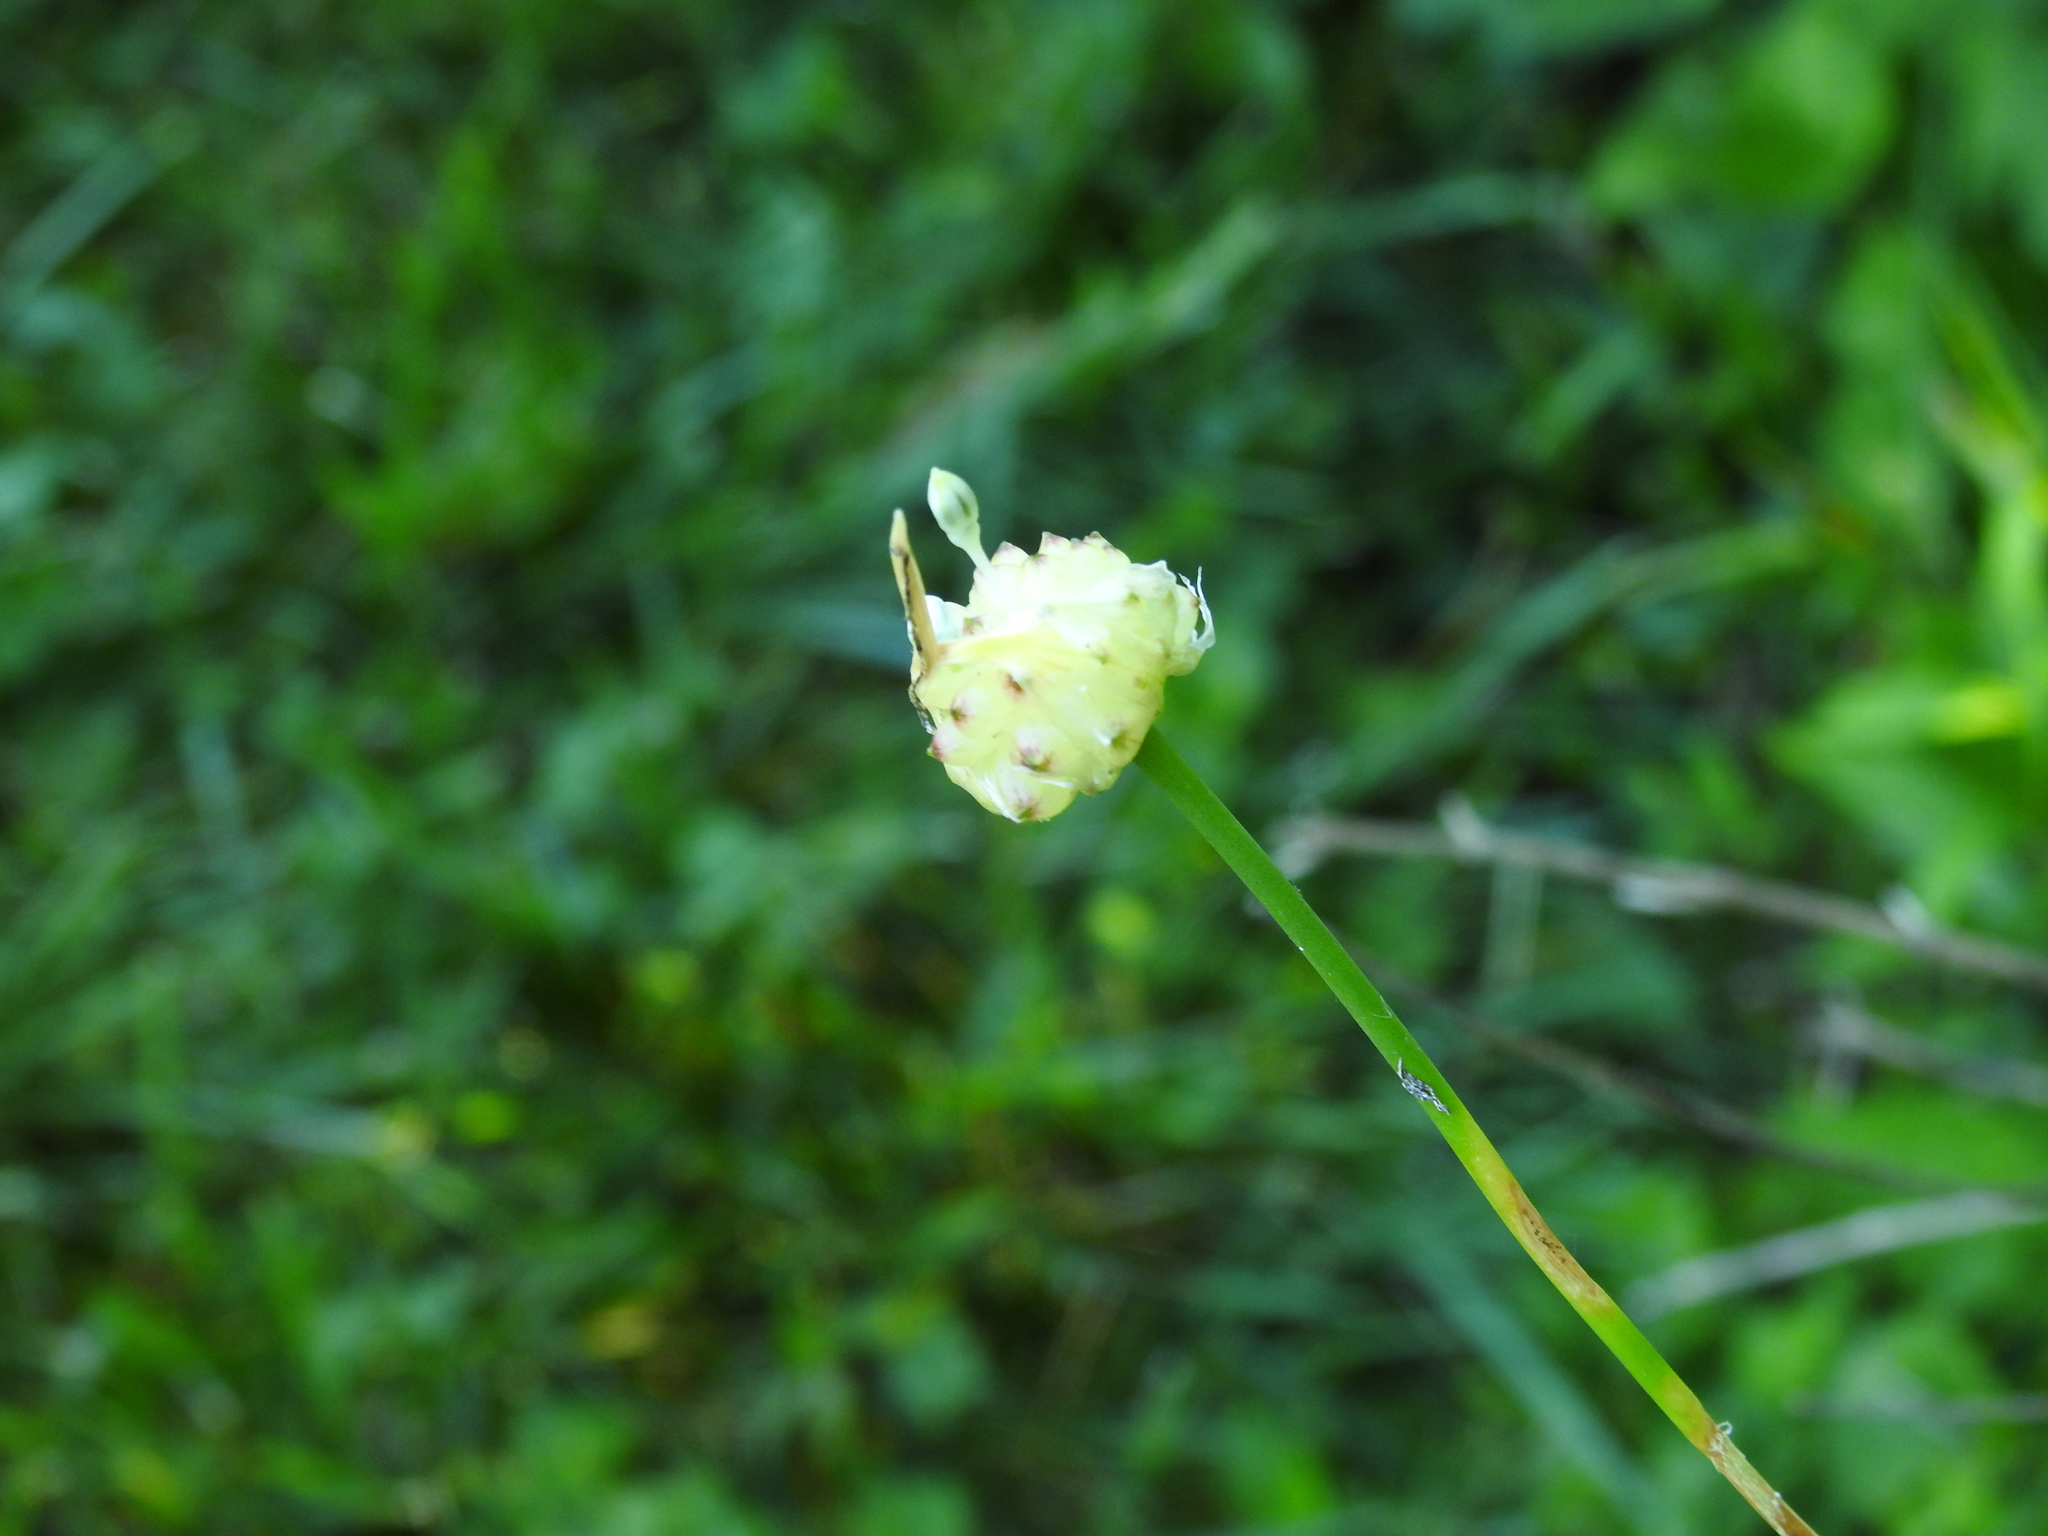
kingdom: Plantae
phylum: Tracheophyta
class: Liliopsida
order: Asparagales
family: Amaryllidaceae
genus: Allium
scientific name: Allium vineale
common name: Crow garlic
